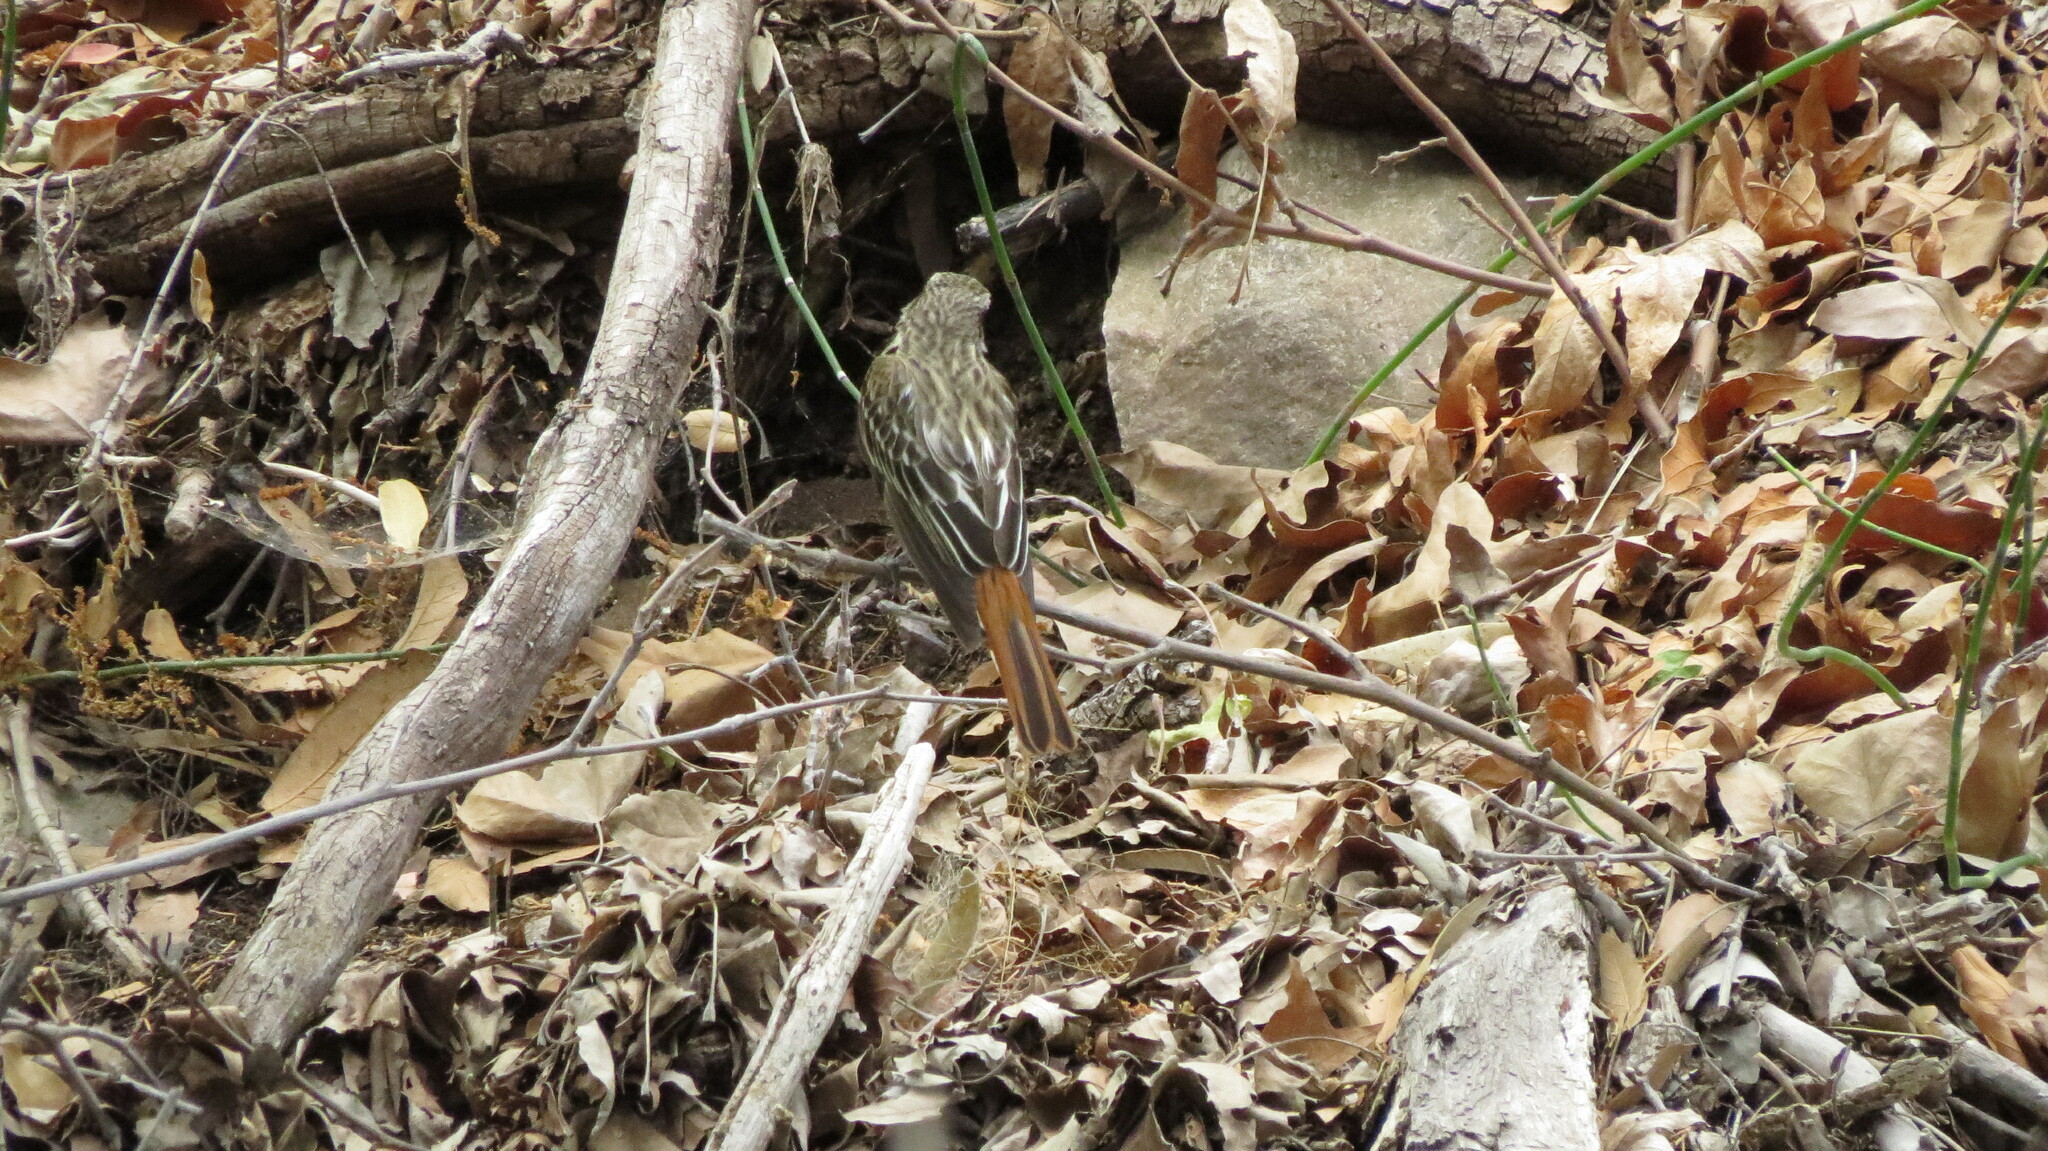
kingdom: Animalia
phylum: Chordata
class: Aves
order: Passeriformes
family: Tyrannidae
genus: Myiodynastes
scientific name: Myiodynastes luteiventris
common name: Sulphur-bellied flycatcher
